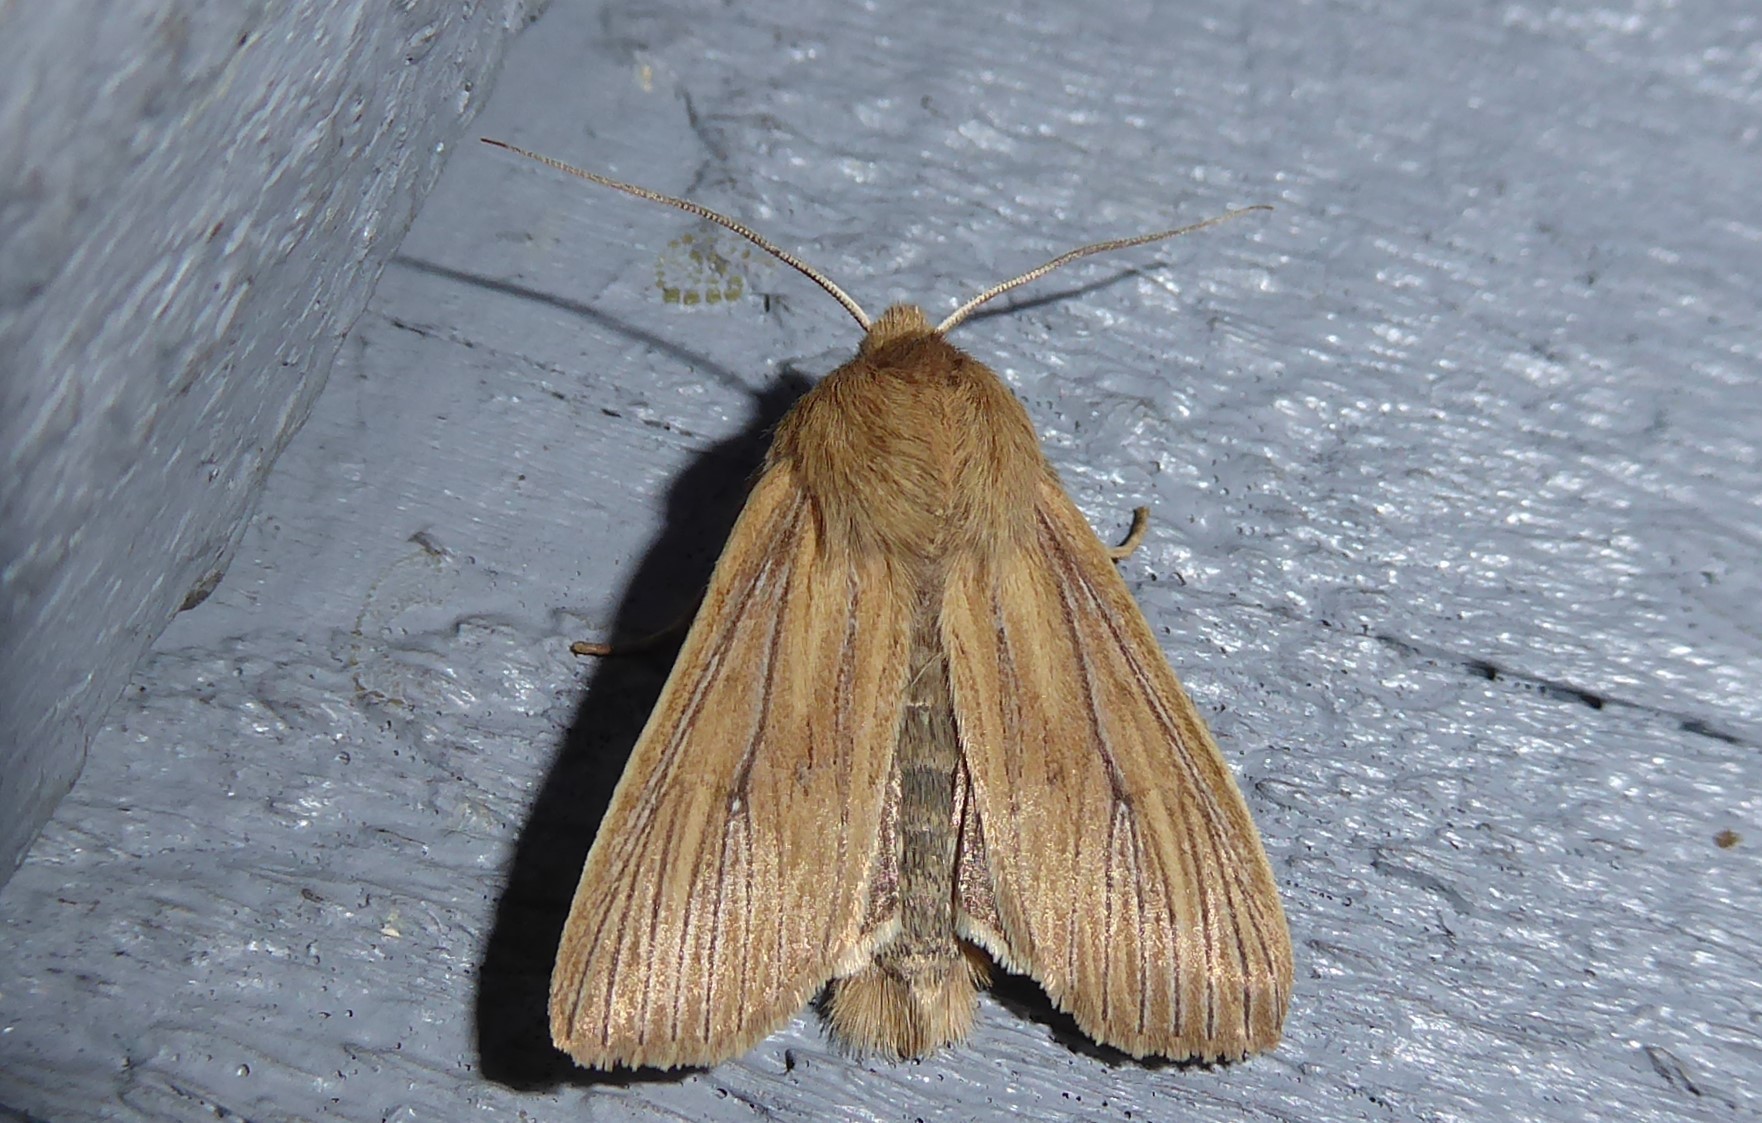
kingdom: Animalia
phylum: Arthropoda
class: Insecta
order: Lepidoptera
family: Noctuidae
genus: Ichneutica
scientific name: Ichneutica arotis
